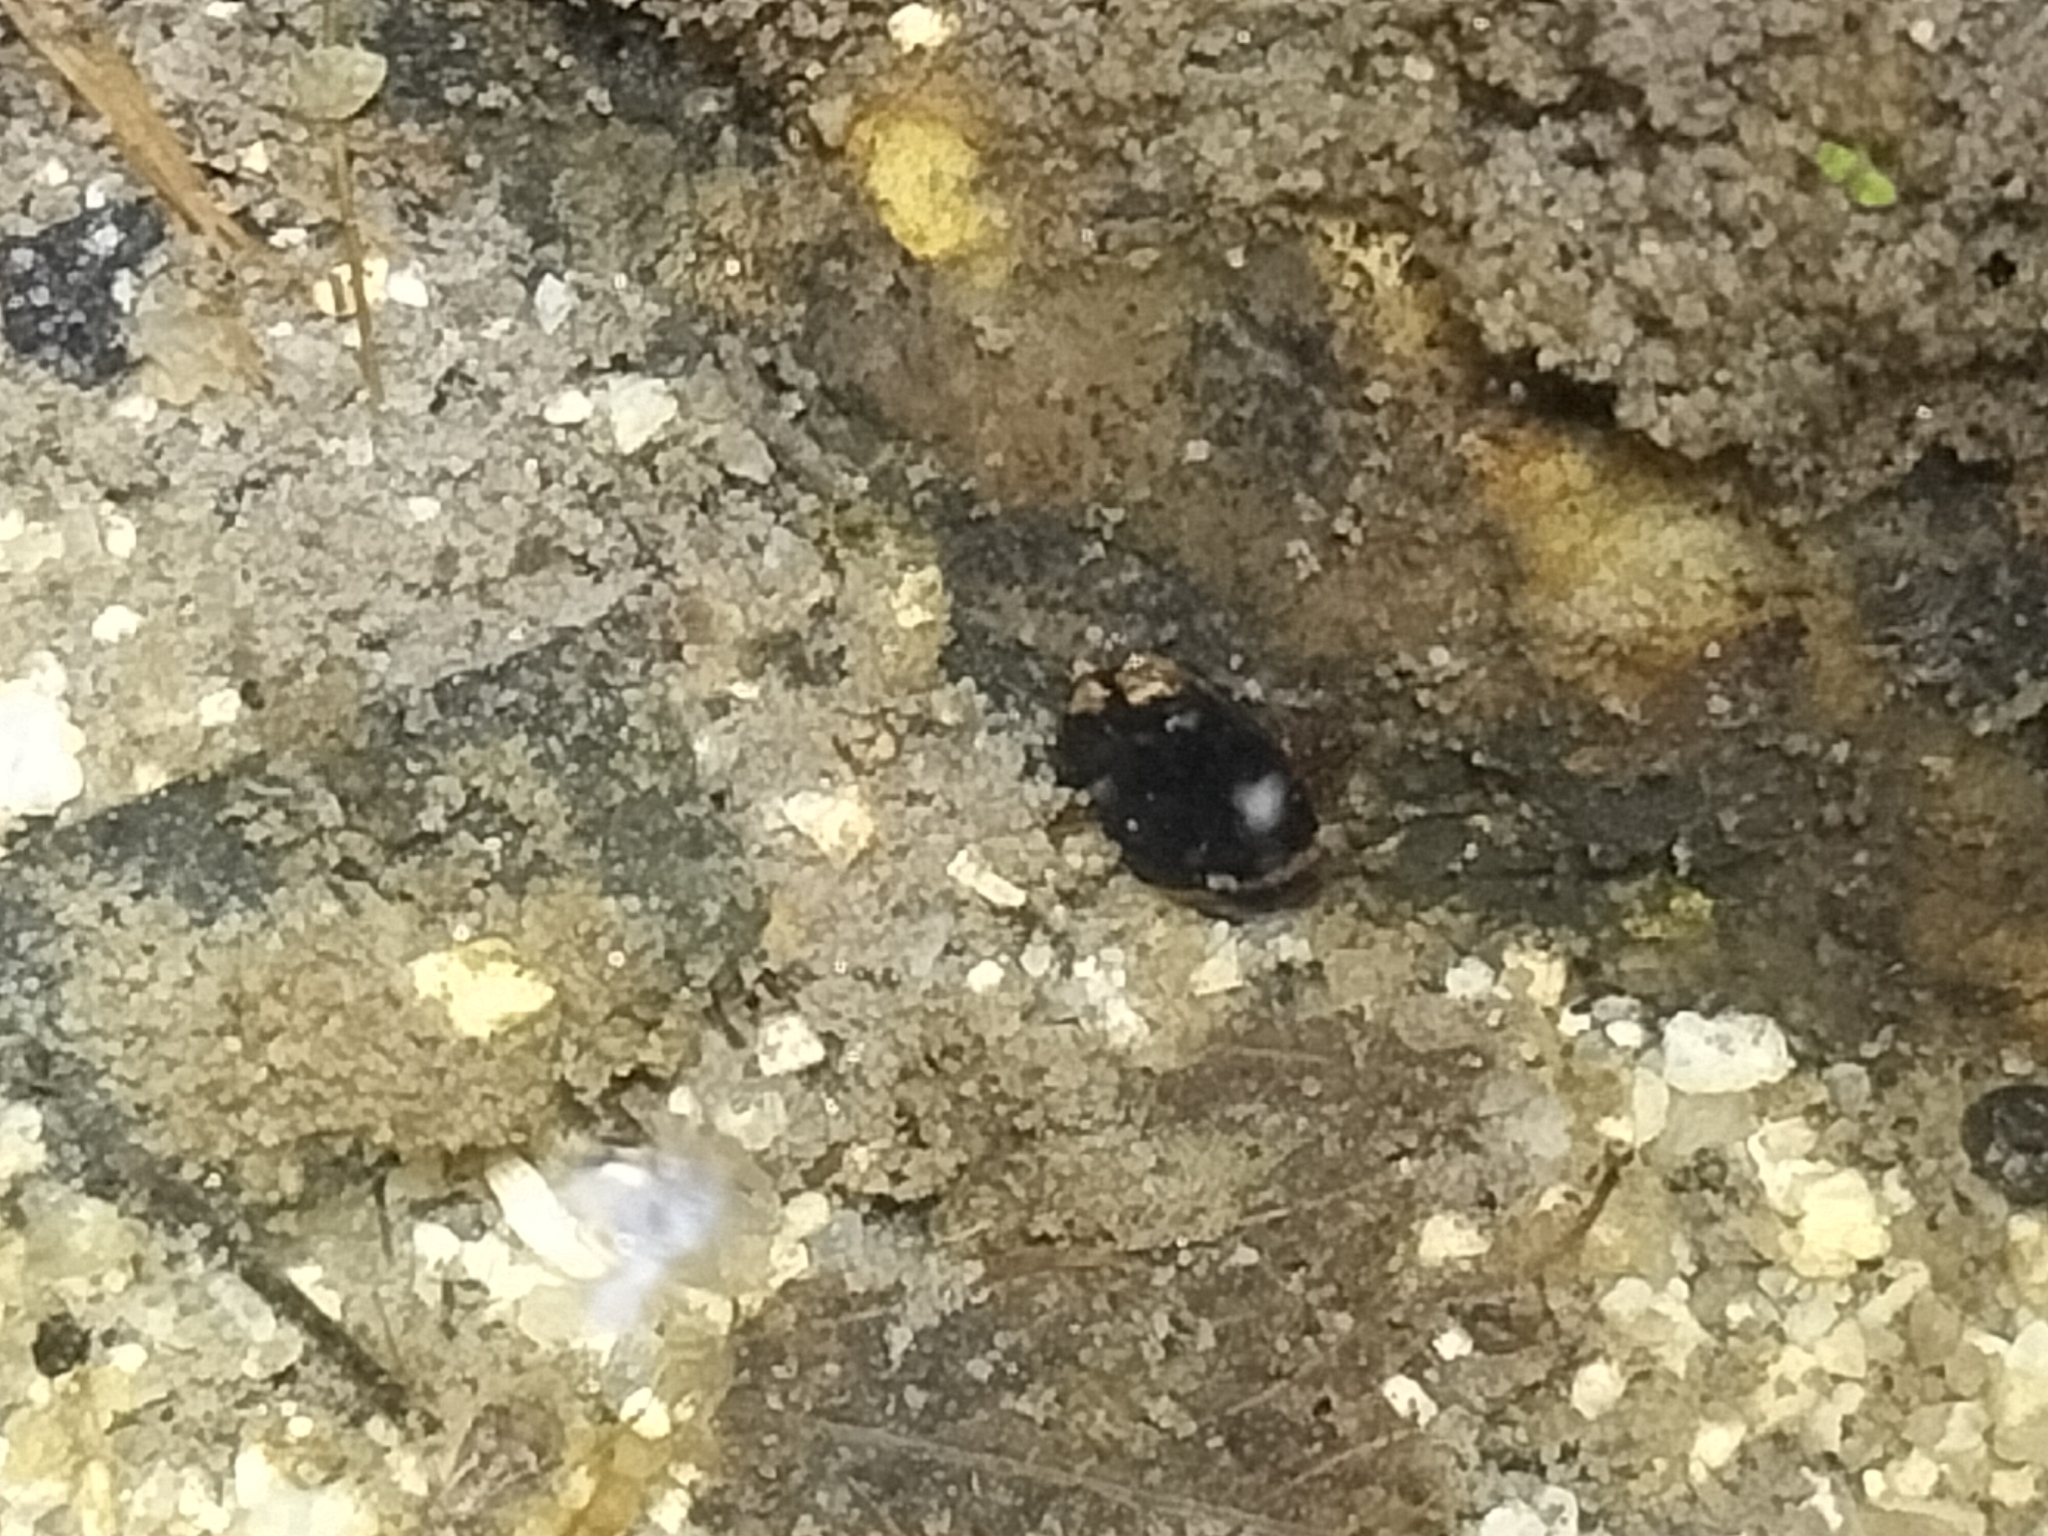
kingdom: Animalia
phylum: Arthropoda
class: Insecta
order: Coleoptera
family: Dytiscidae
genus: Copelatus
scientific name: Copelatus irregularis
